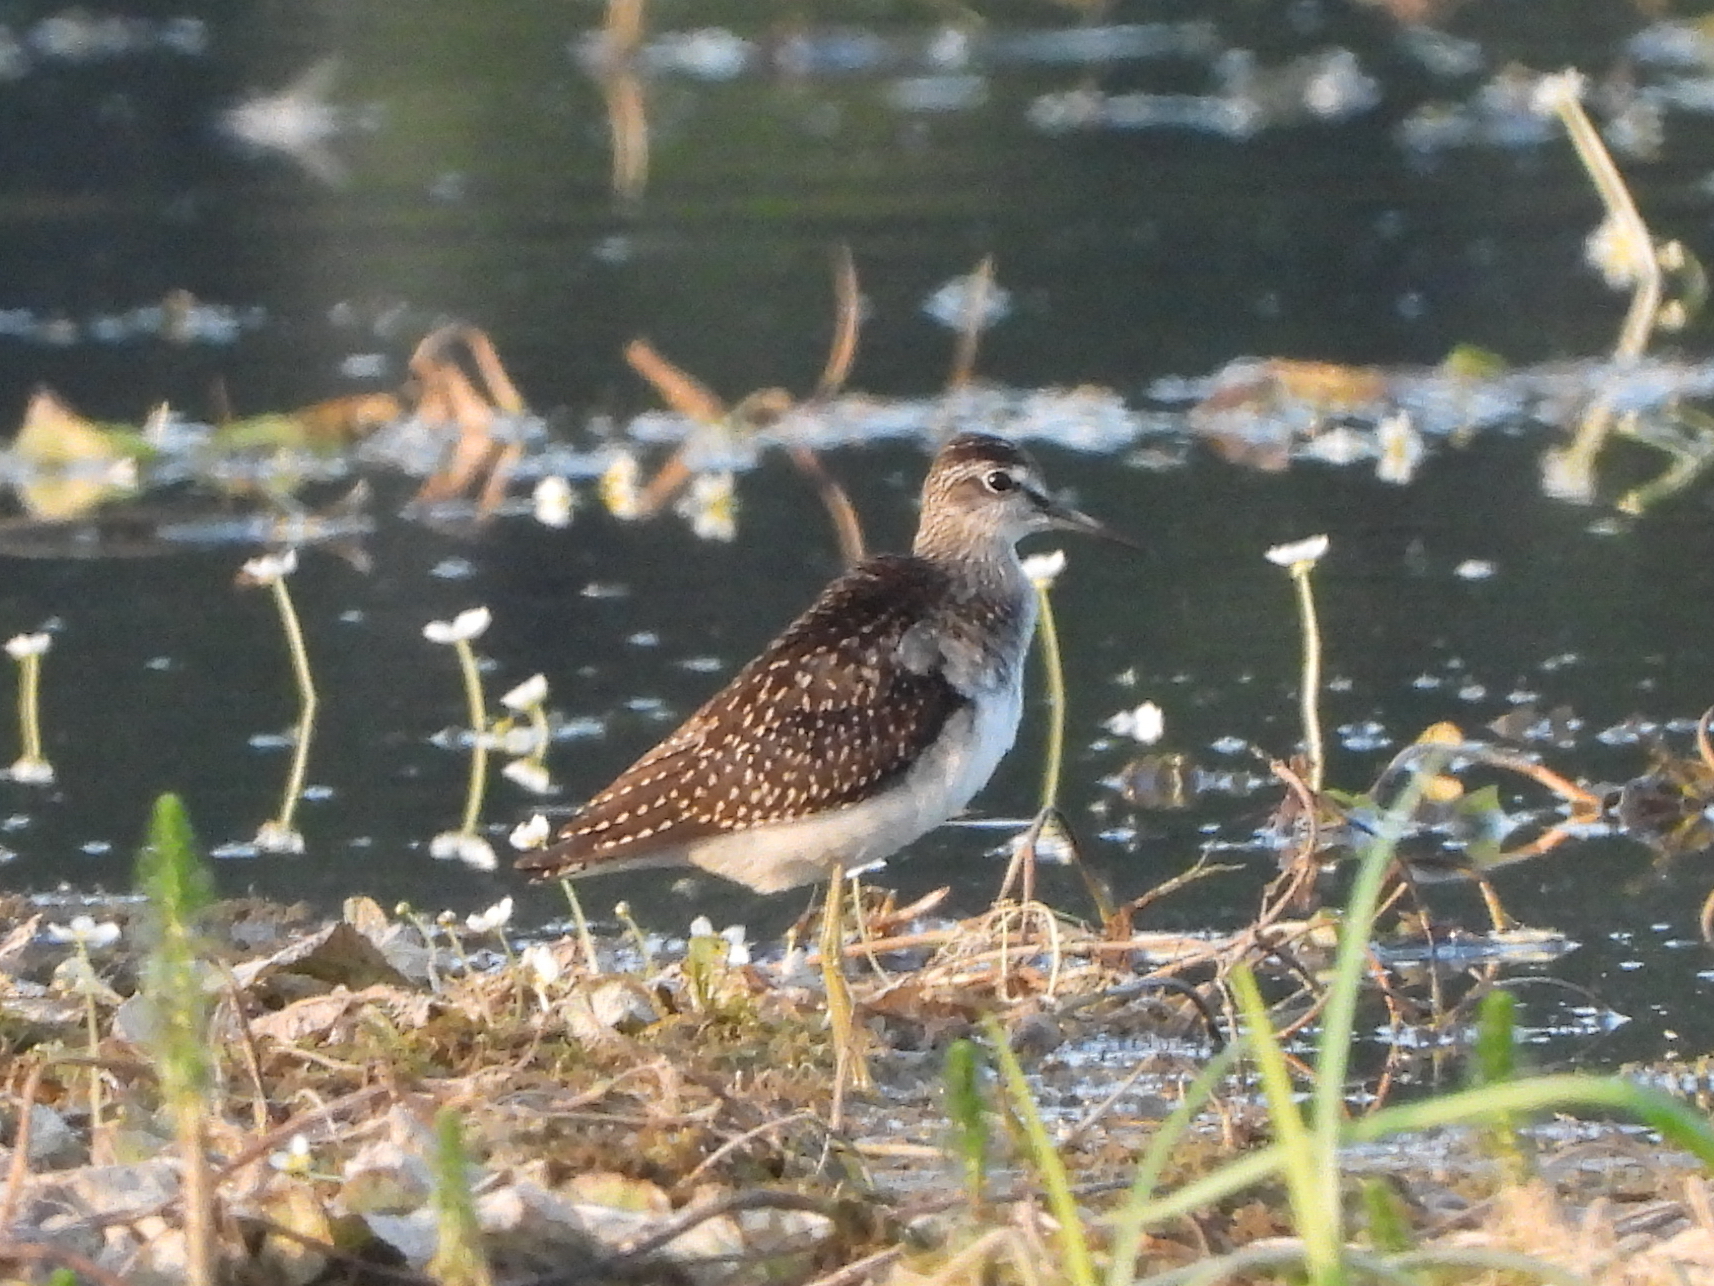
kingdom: Animalia
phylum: Chordata
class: Aves
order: Charadriiformes
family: Scolopacidae
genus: Tringa
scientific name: Tringa glareola
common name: Wood sandpiper
